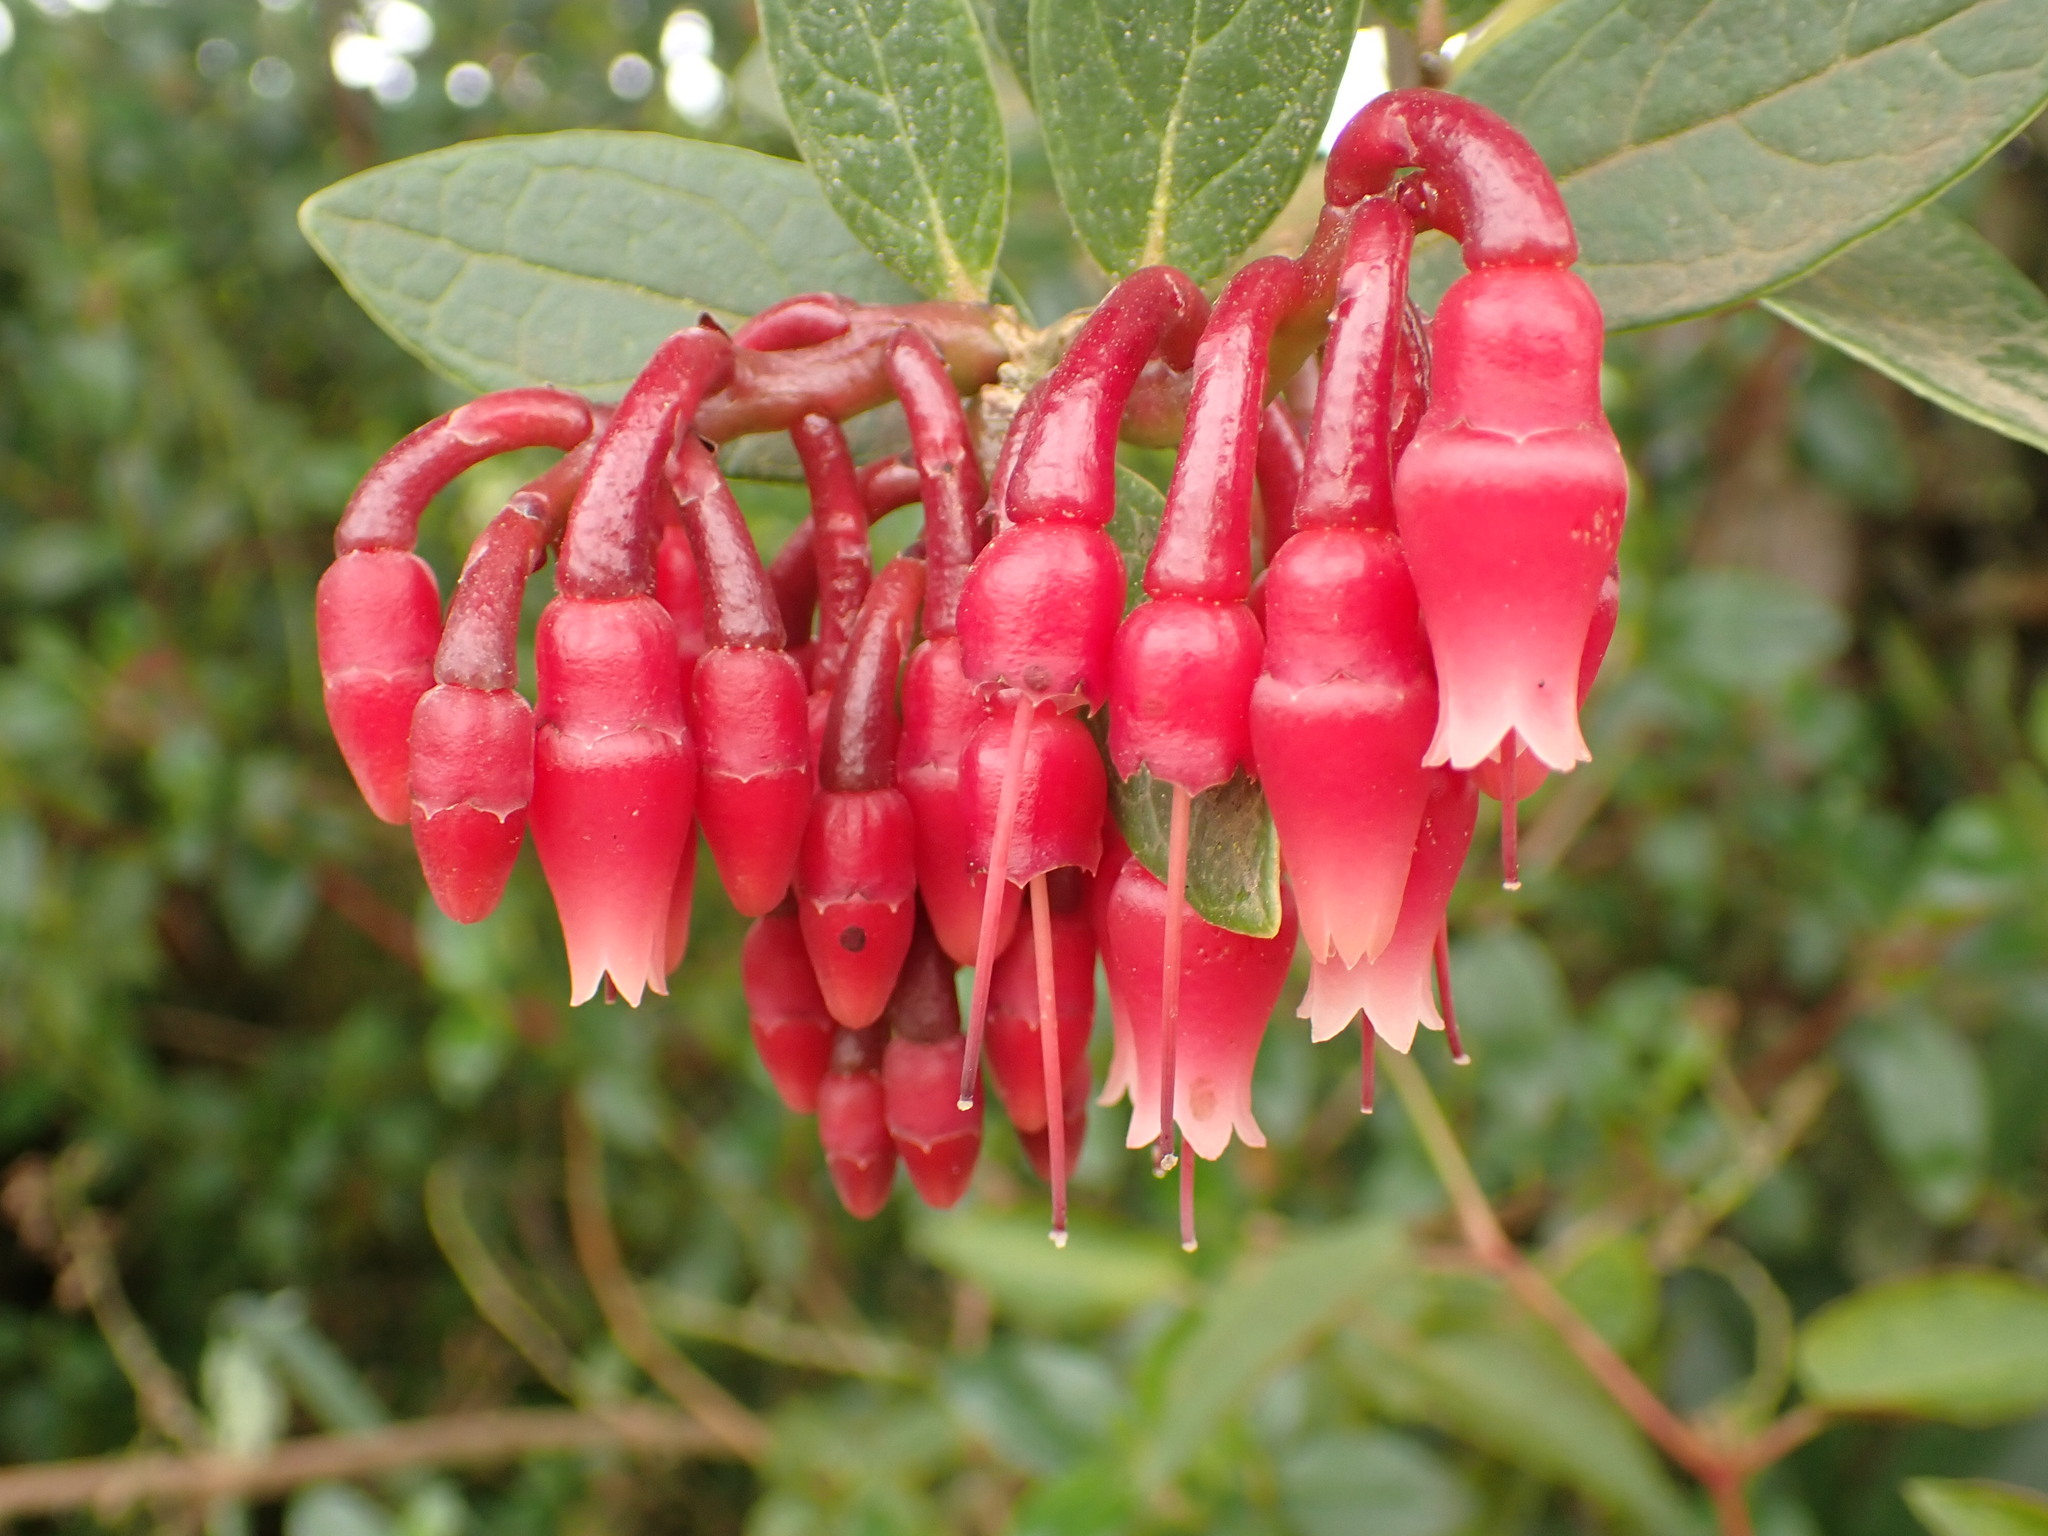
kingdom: Plantae
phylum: Tracheophyta
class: Magnoliopsida
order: Ericales
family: Ericaceae
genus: Macleania
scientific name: Macleania rupestris
